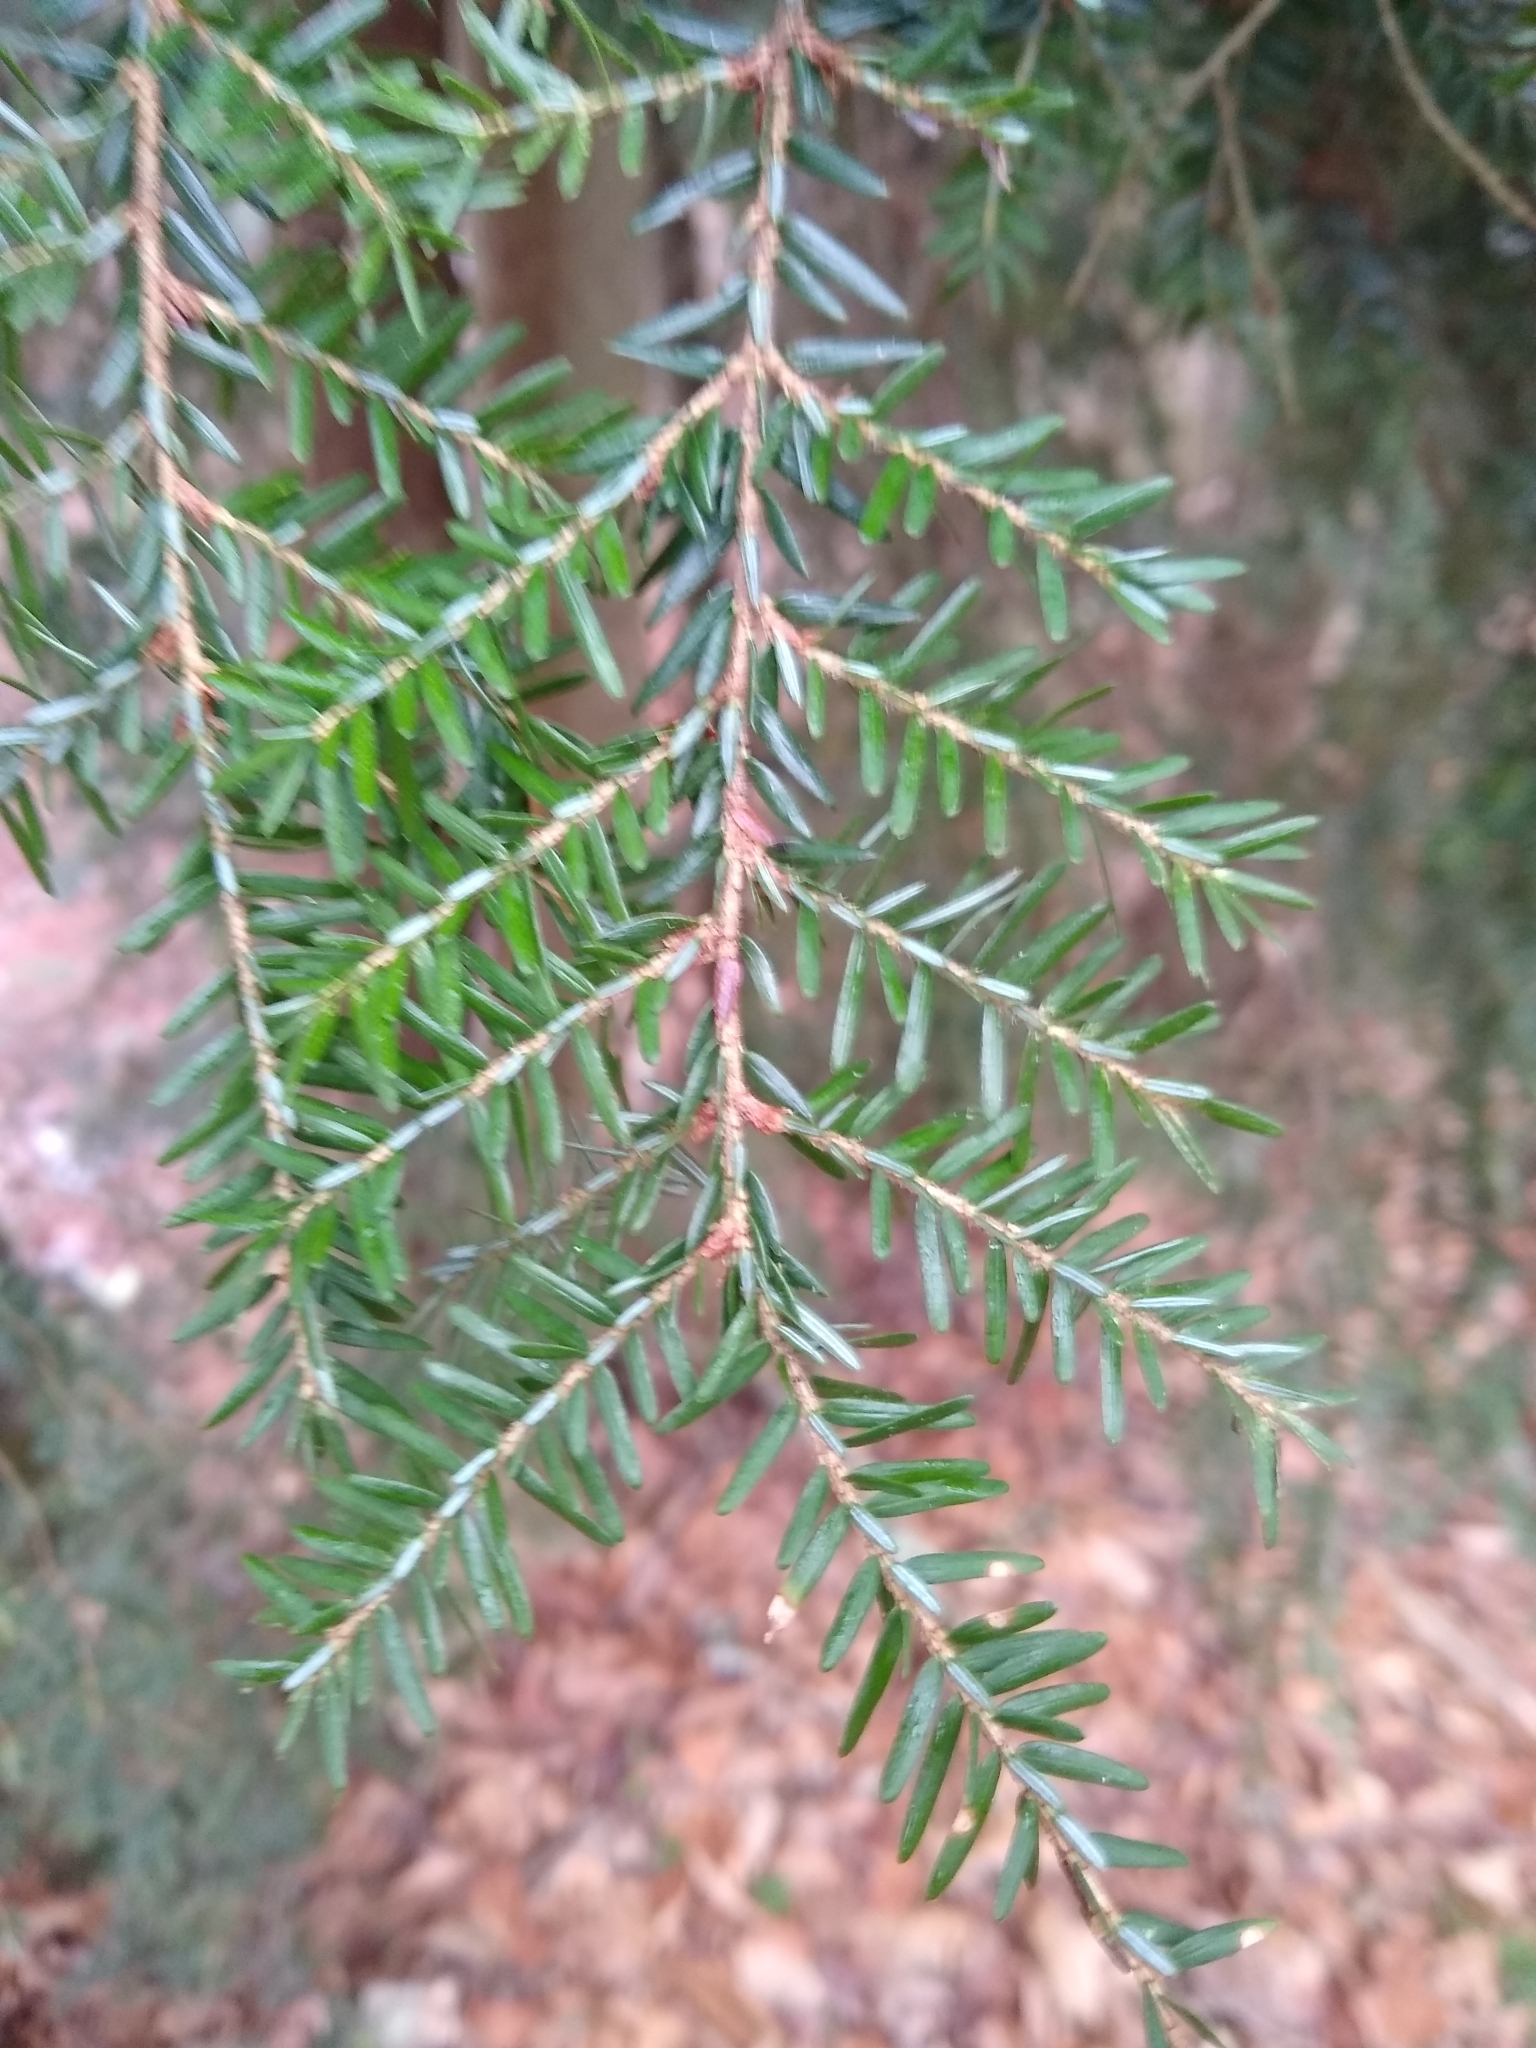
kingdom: Plantae
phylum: Tracheophyta
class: Pinopsida
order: Pinales
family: Pinaceae
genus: Tsuga
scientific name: Tsuga canadensis
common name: Eastern hemlock
